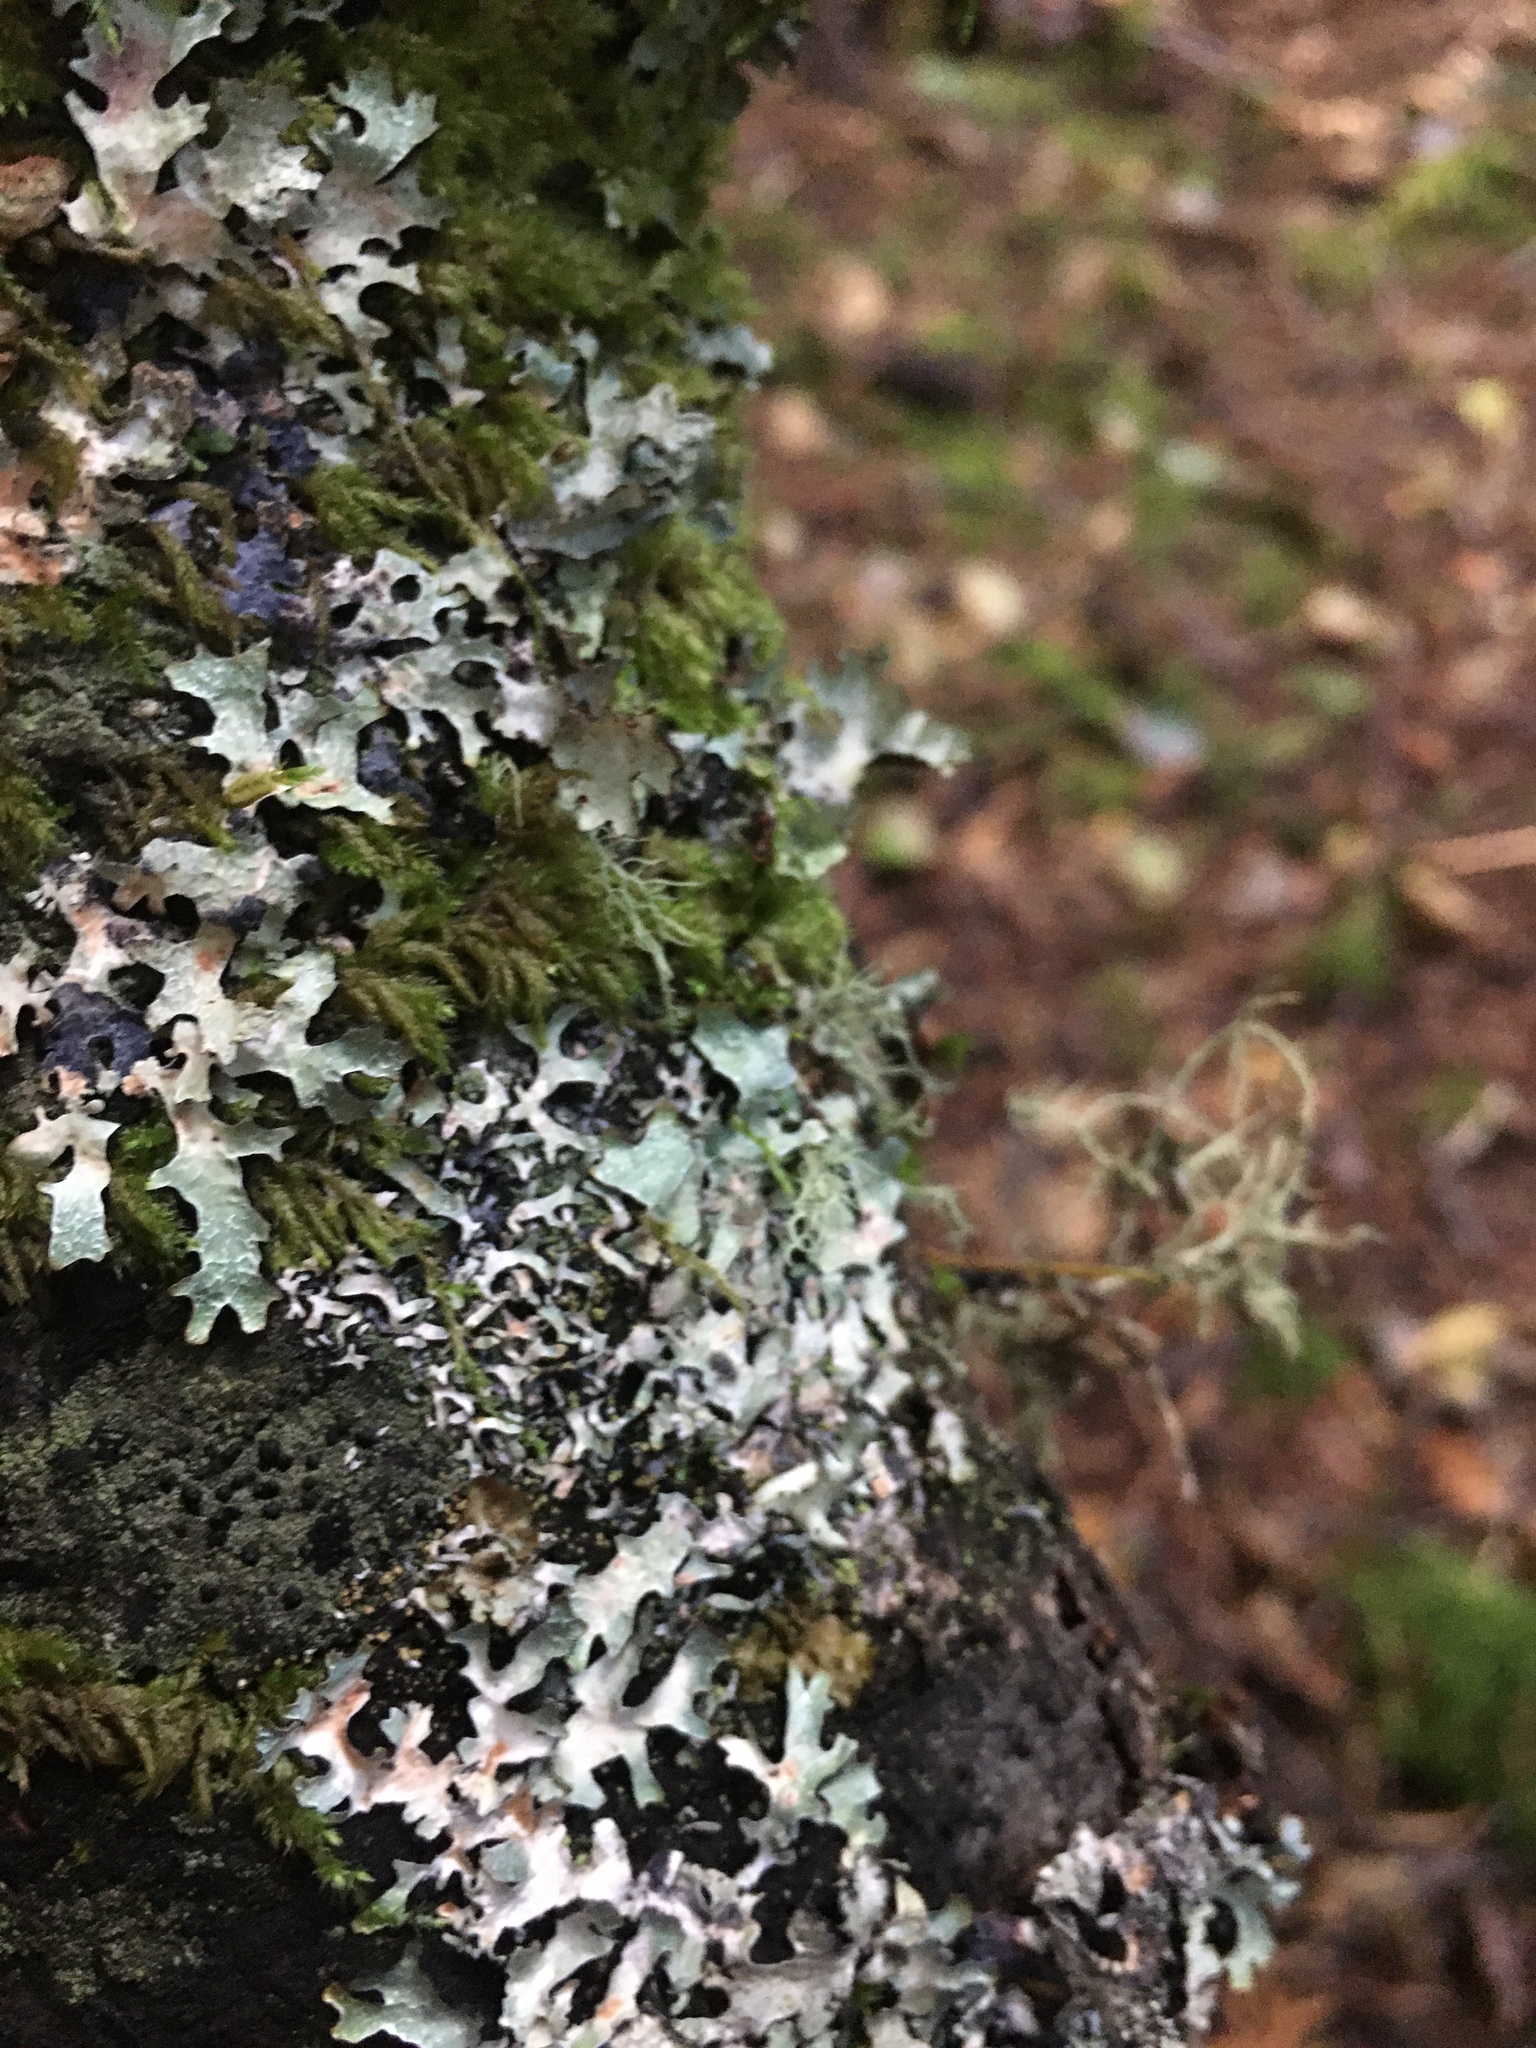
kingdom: Fungi
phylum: Ascomycota
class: Lecanoromycetes
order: Lecanorales
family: Parmeliaceae
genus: Parmelia
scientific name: Parmelia sulcata
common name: Netted shield lichen
